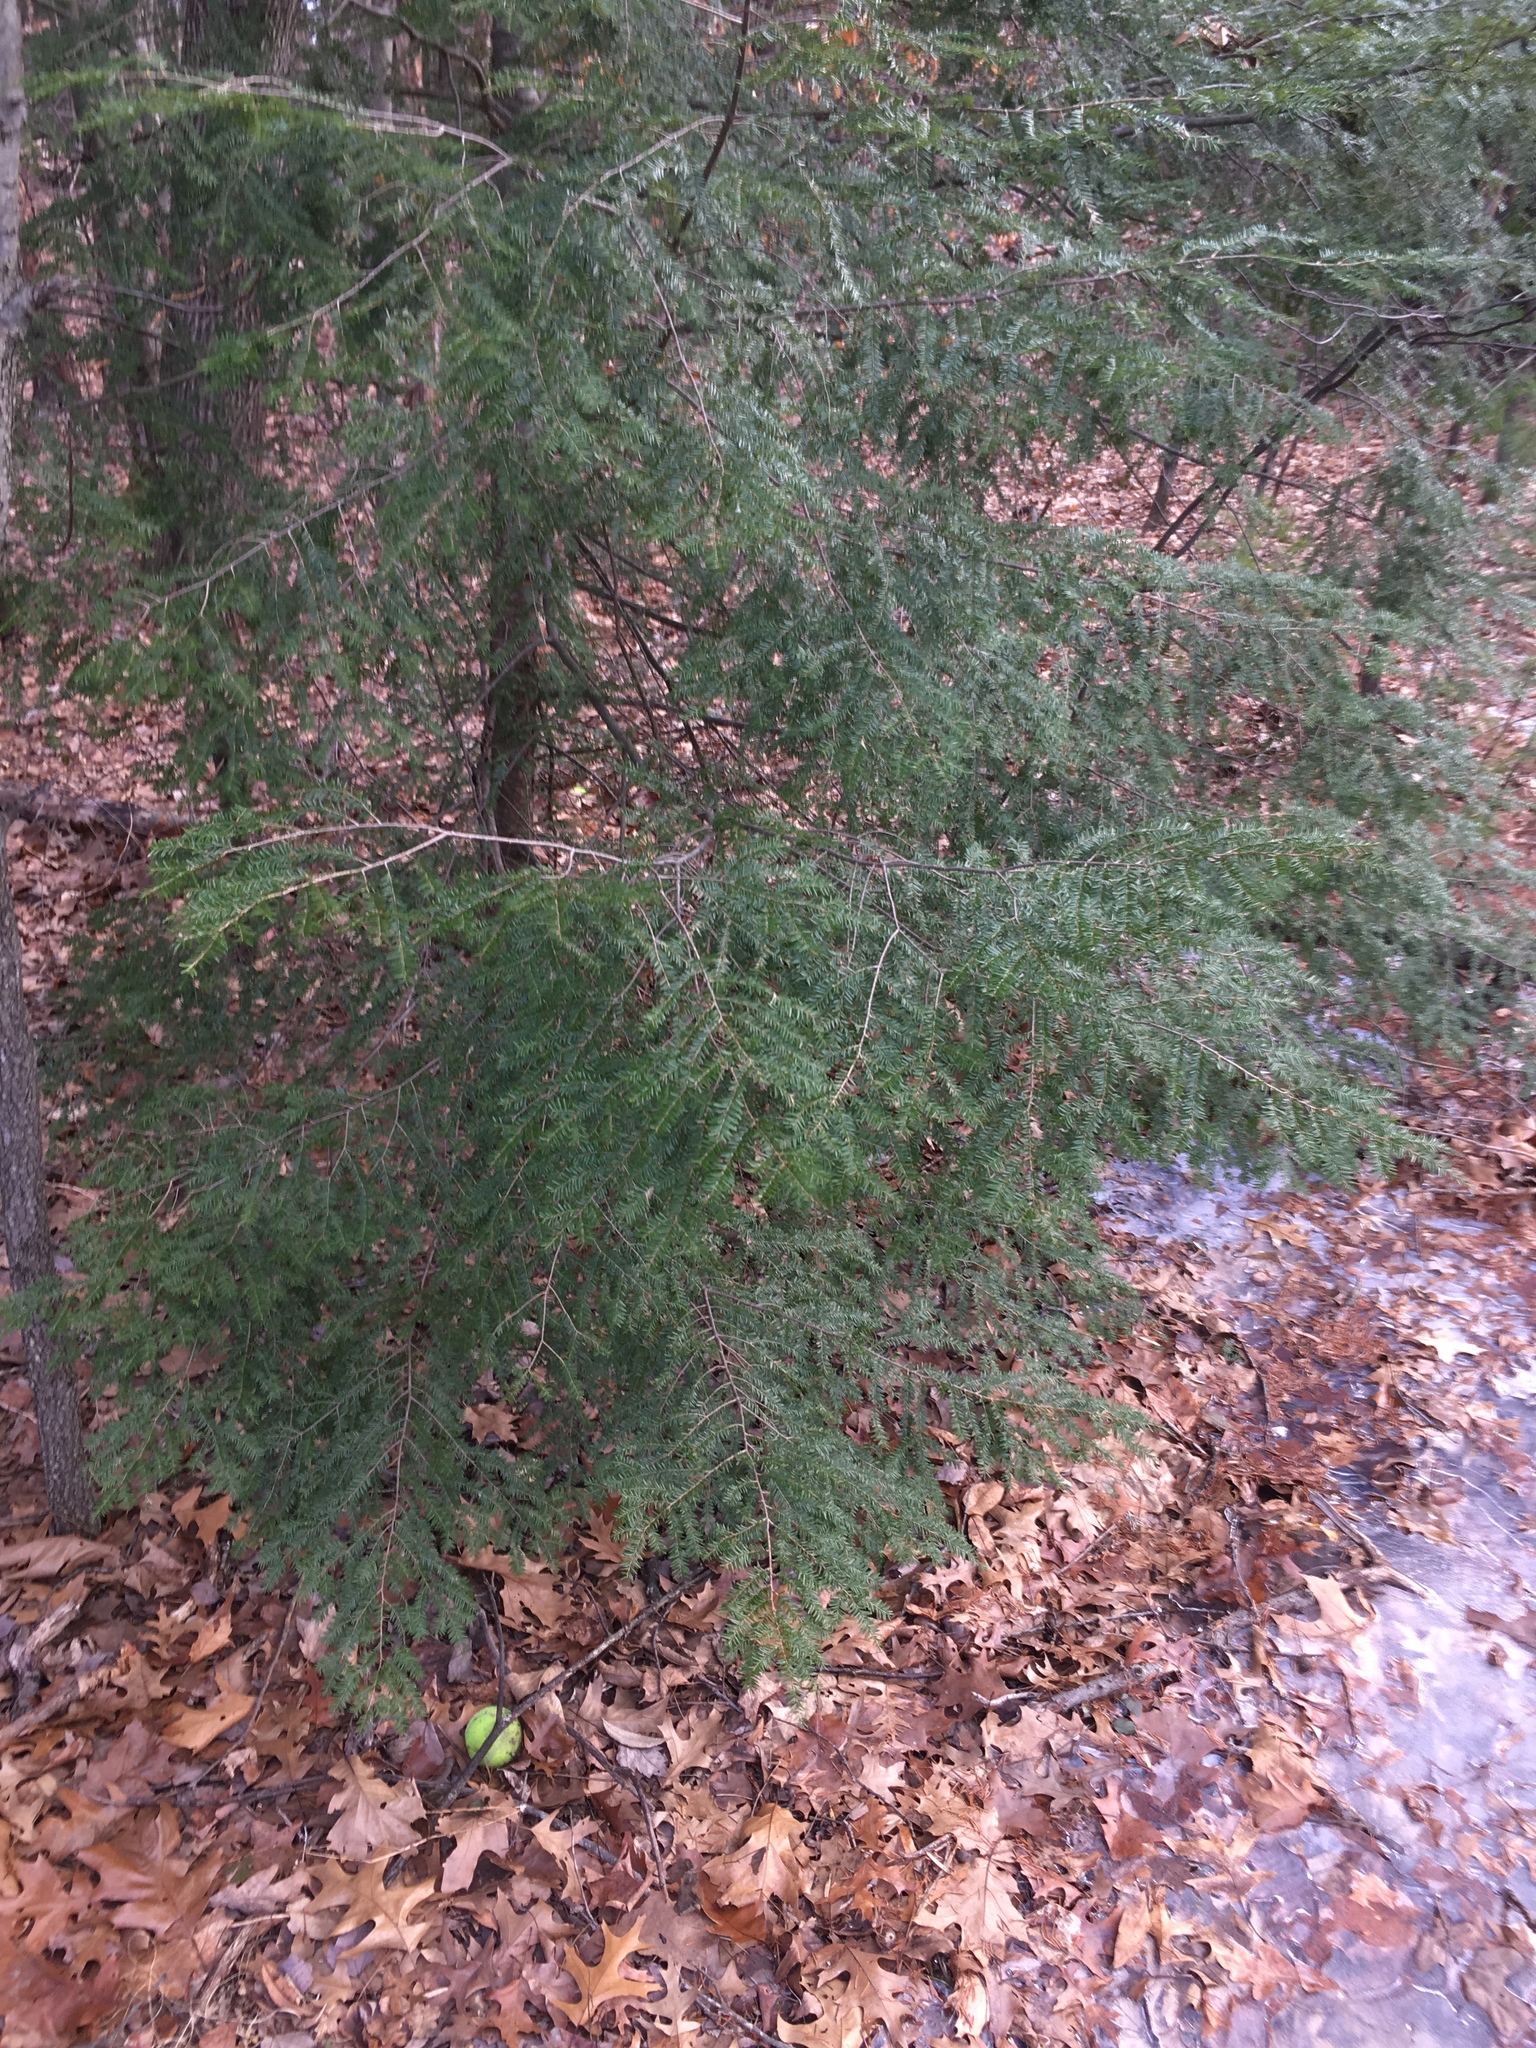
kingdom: Plantae
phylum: Tracheophyta
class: Pinopsida
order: Pinales
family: Pinaceae
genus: Tsuga
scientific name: Tsuga canadensis
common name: Eastern hemlock
